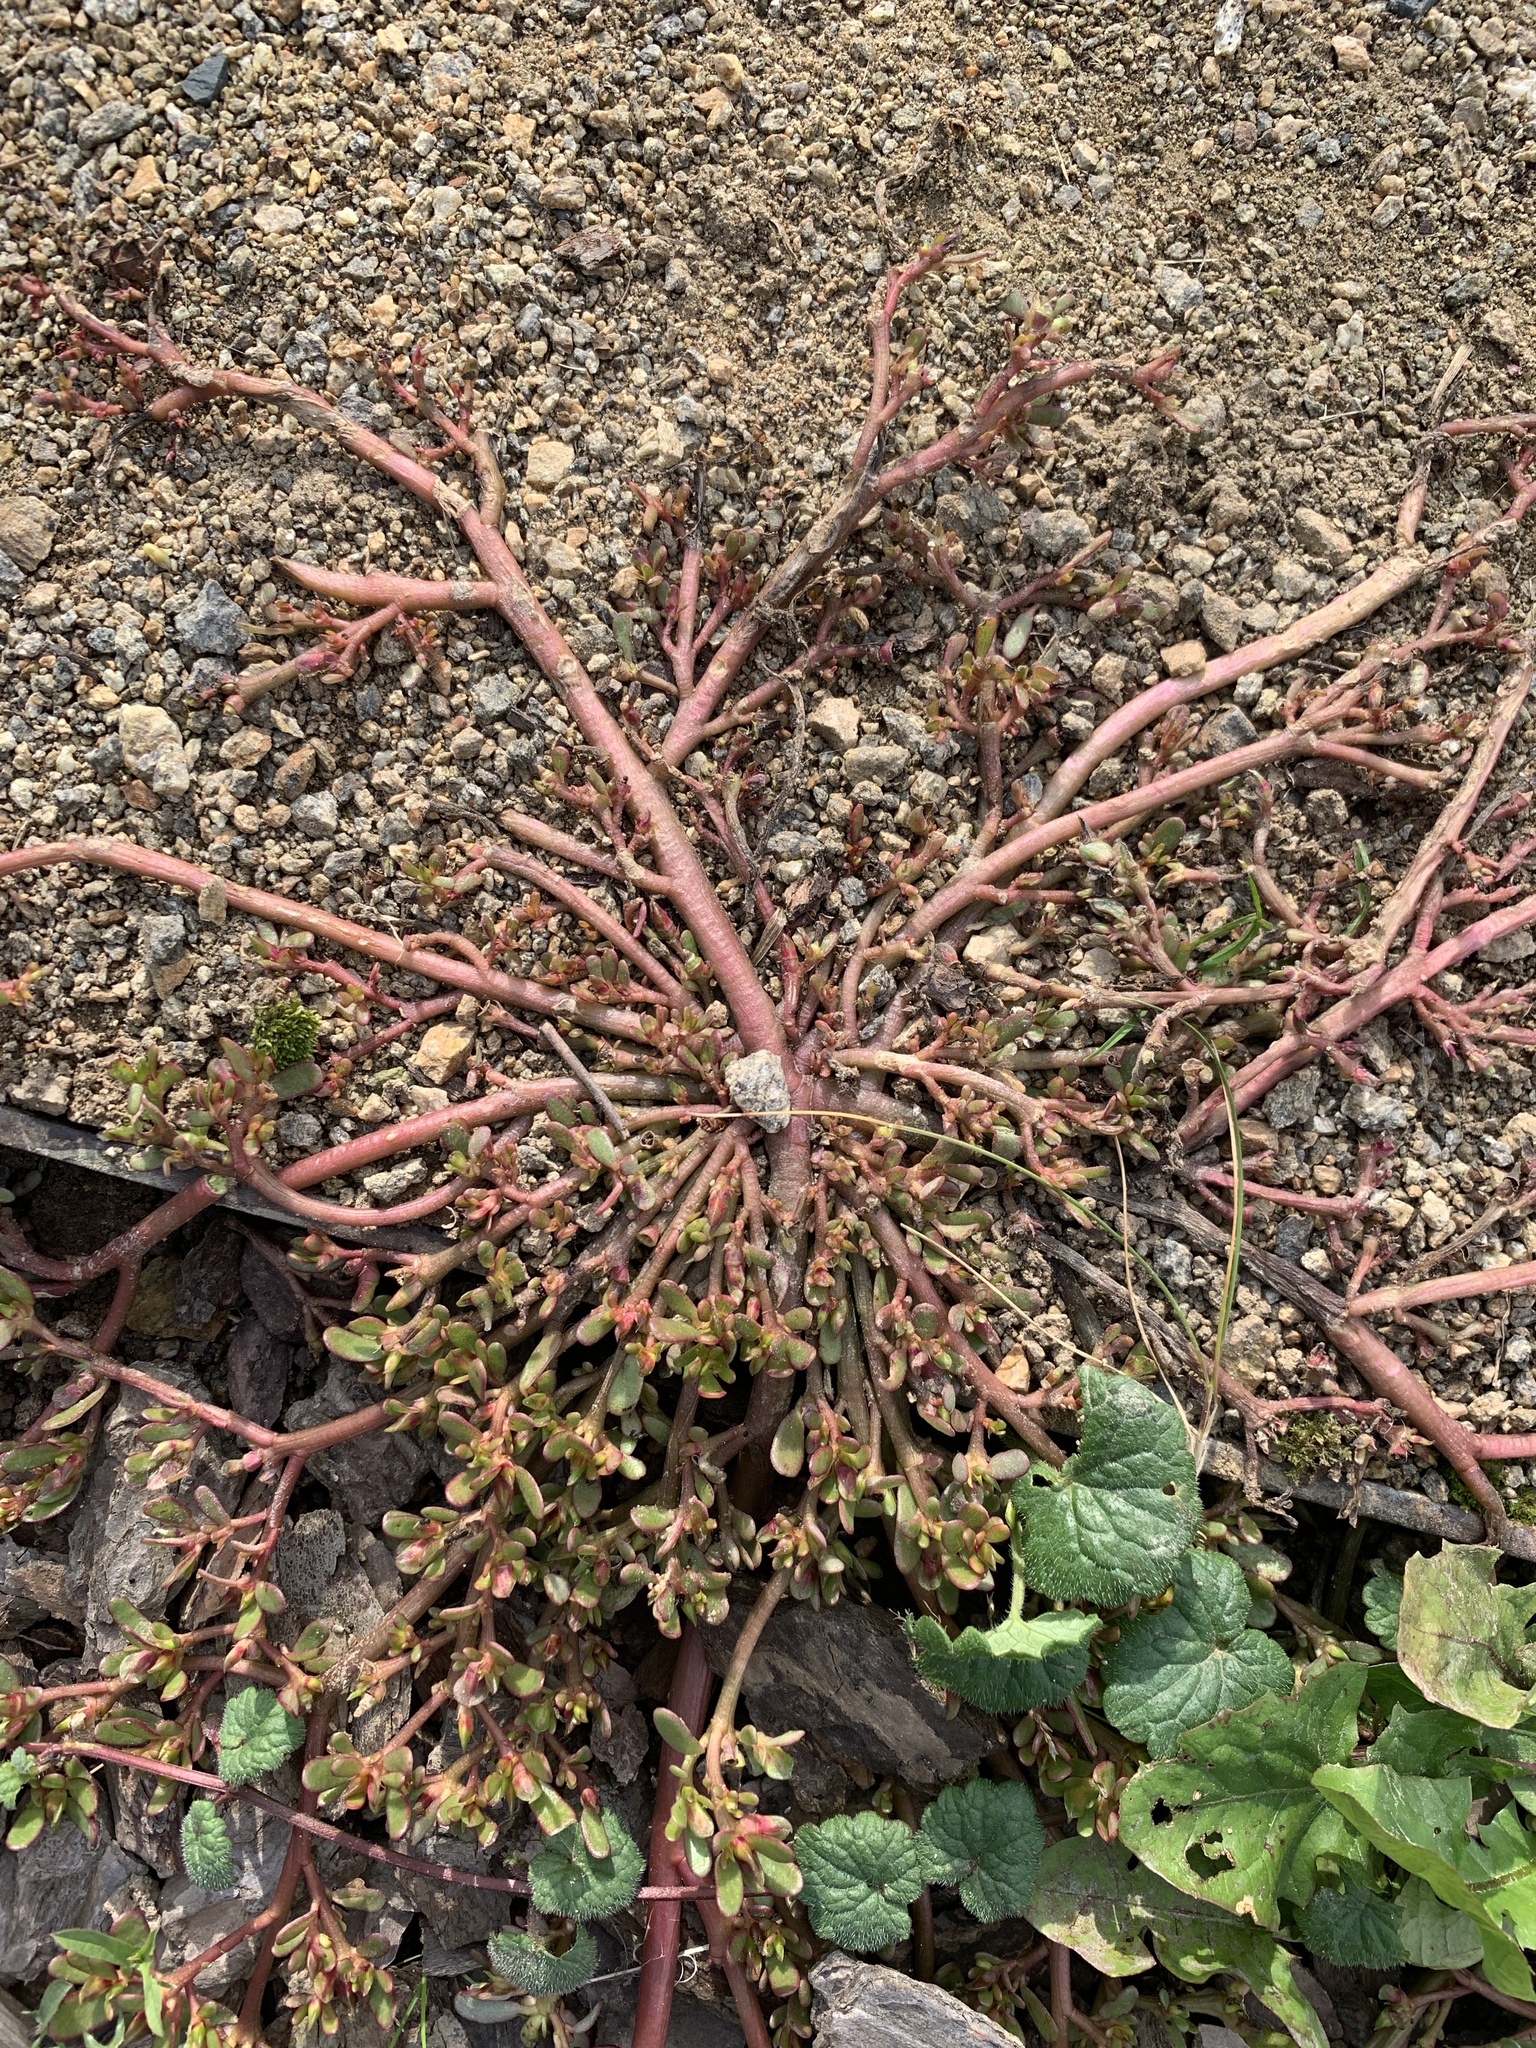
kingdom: Plantae
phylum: Tracheophyta
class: Magnoliopsida
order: Caryophyllales
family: Portulacaceae
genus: Portulaca
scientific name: Portulaca oleracea
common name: Common purslane
